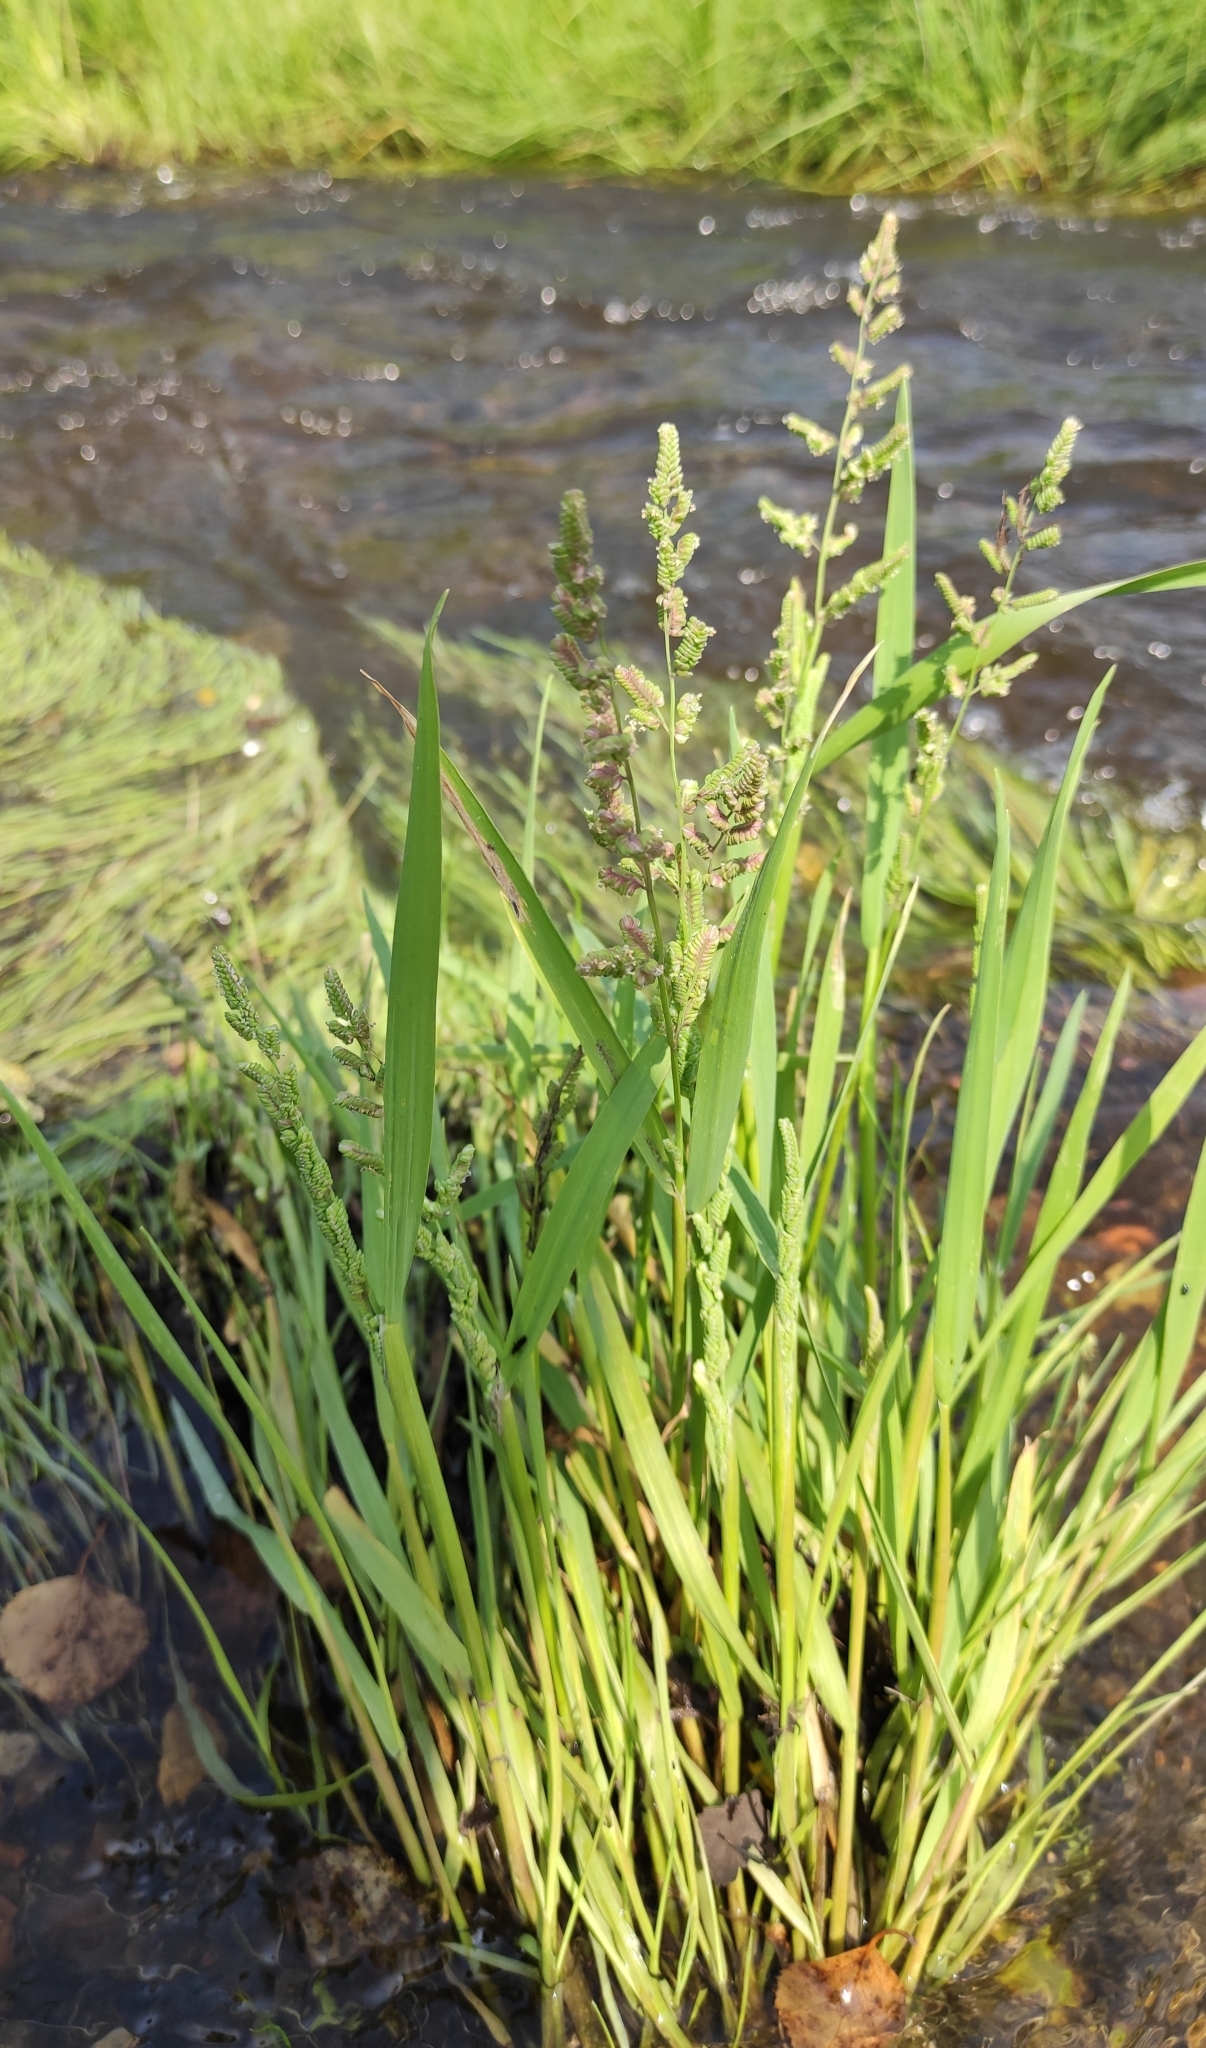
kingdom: Plantae
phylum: Tracheophyta
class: Liliopsida
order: Poales
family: Poaceae
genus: Beckmannia
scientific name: Beckmannia syzigachne
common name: American slough-grass
